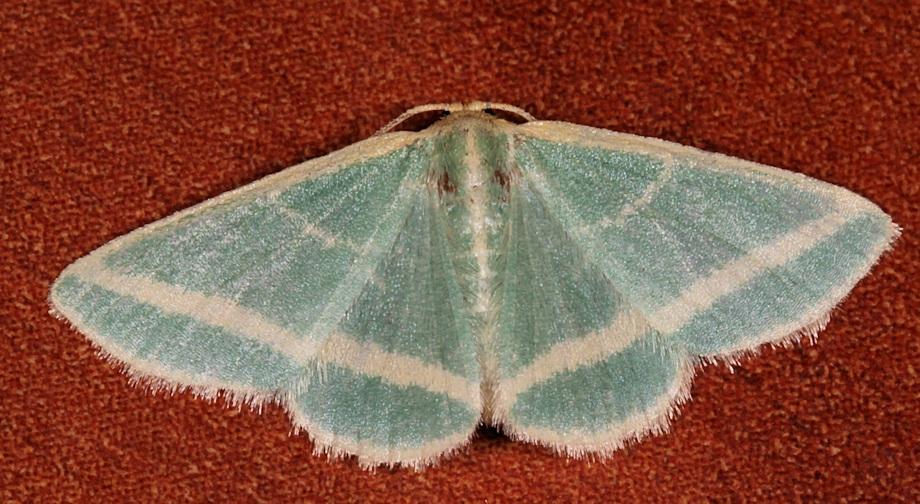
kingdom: Animalia
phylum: Arthropoda
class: Insecta
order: Lepidoptera
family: Geometridae
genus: Mixocera
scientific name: Mixocera frustratoria
